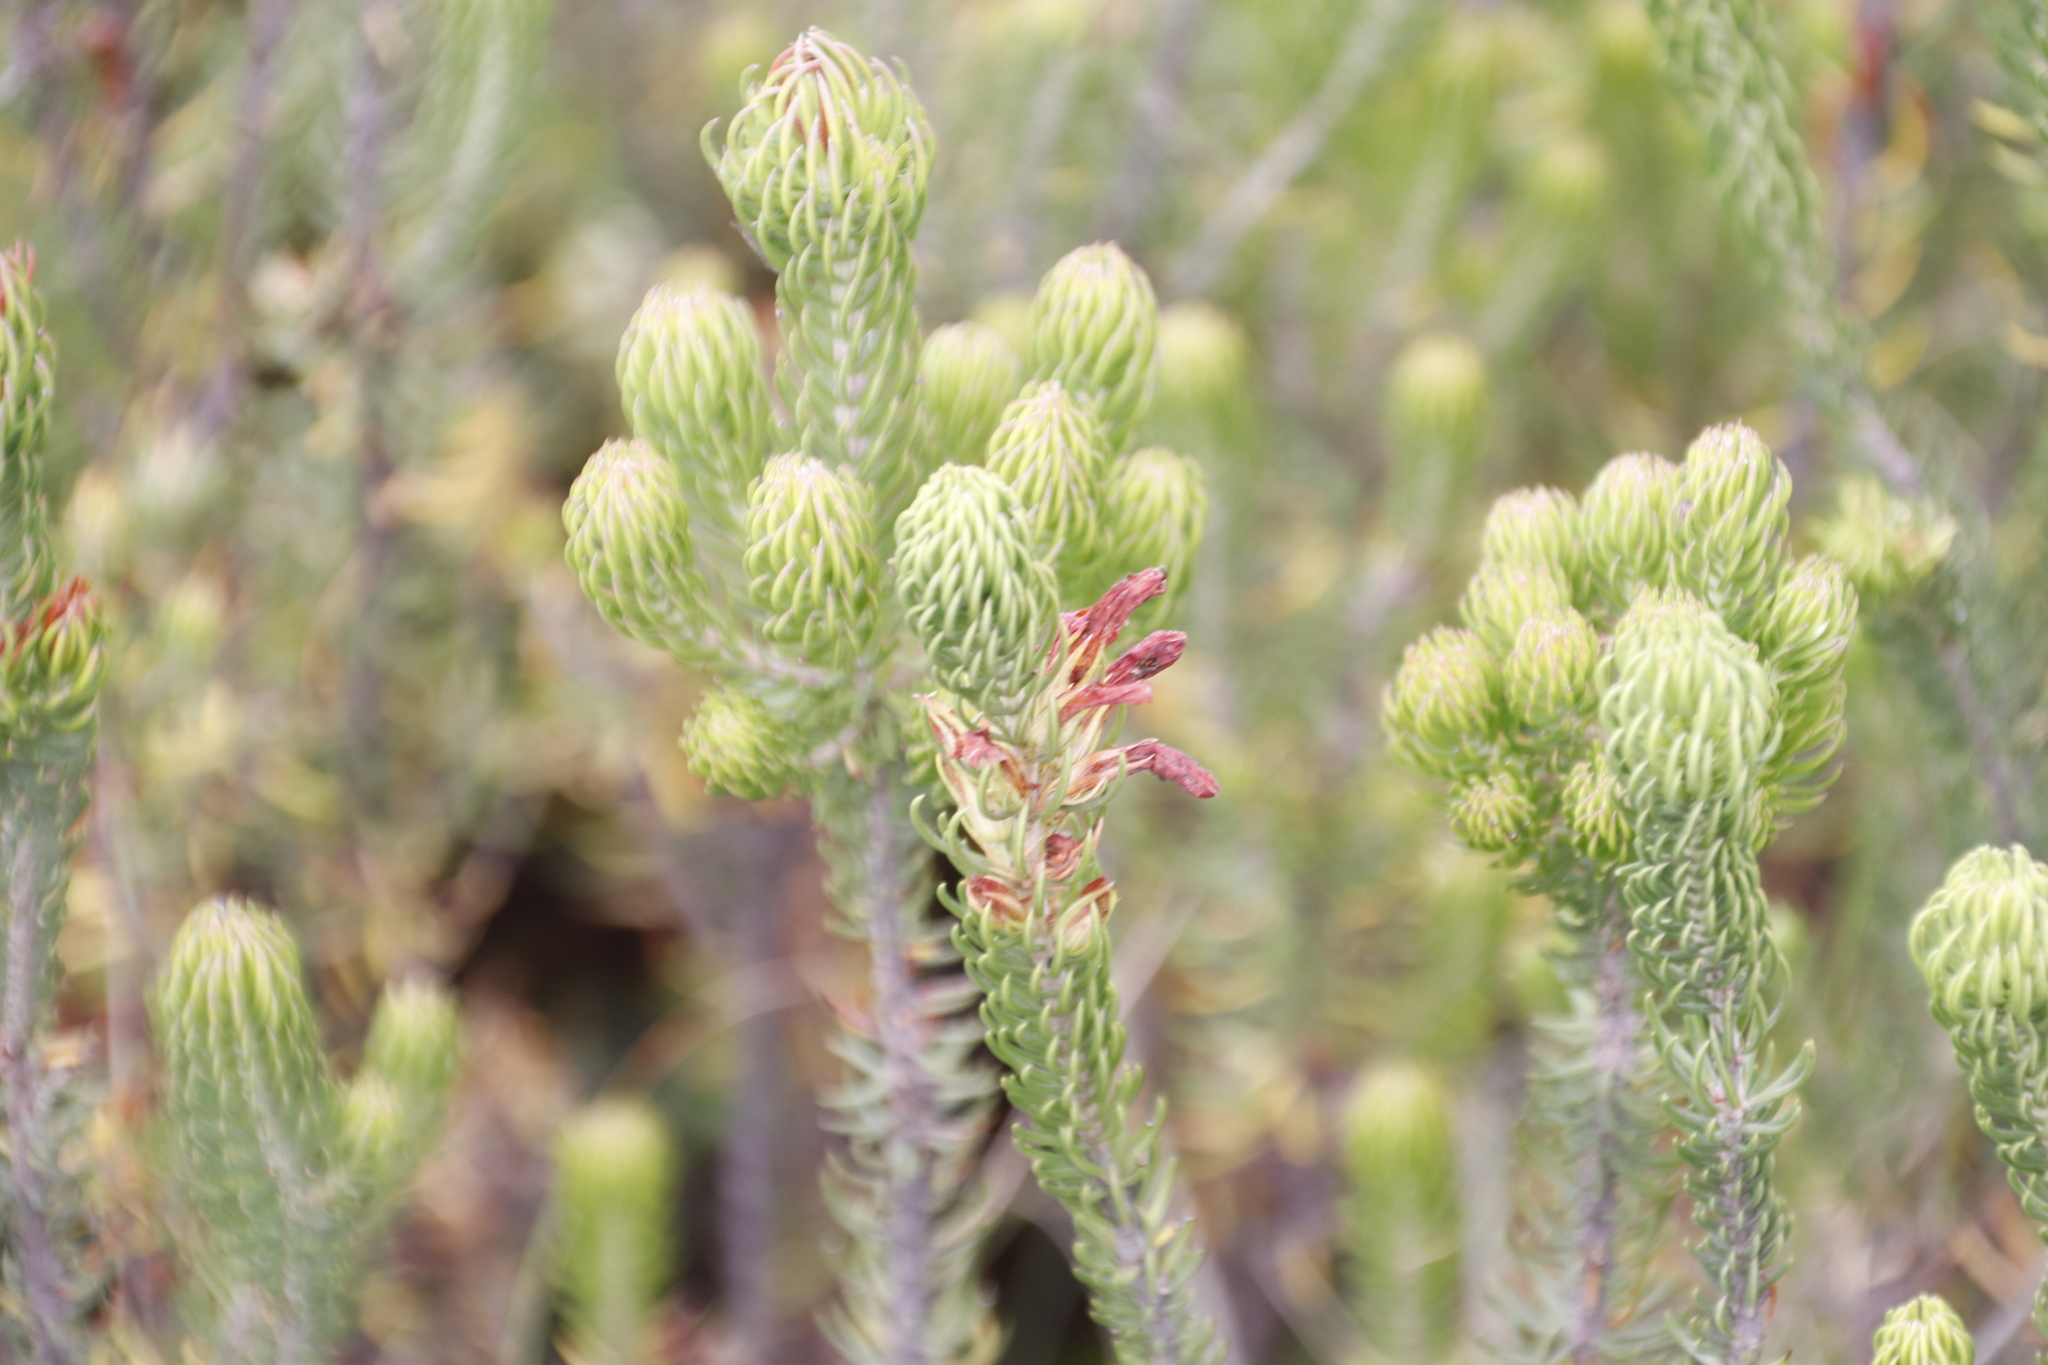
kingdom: Plantae
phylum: Tracheophyta
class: Magnoliopsida
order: Ericales
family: Ericaceae
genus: Erica
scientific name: Erica abietina
